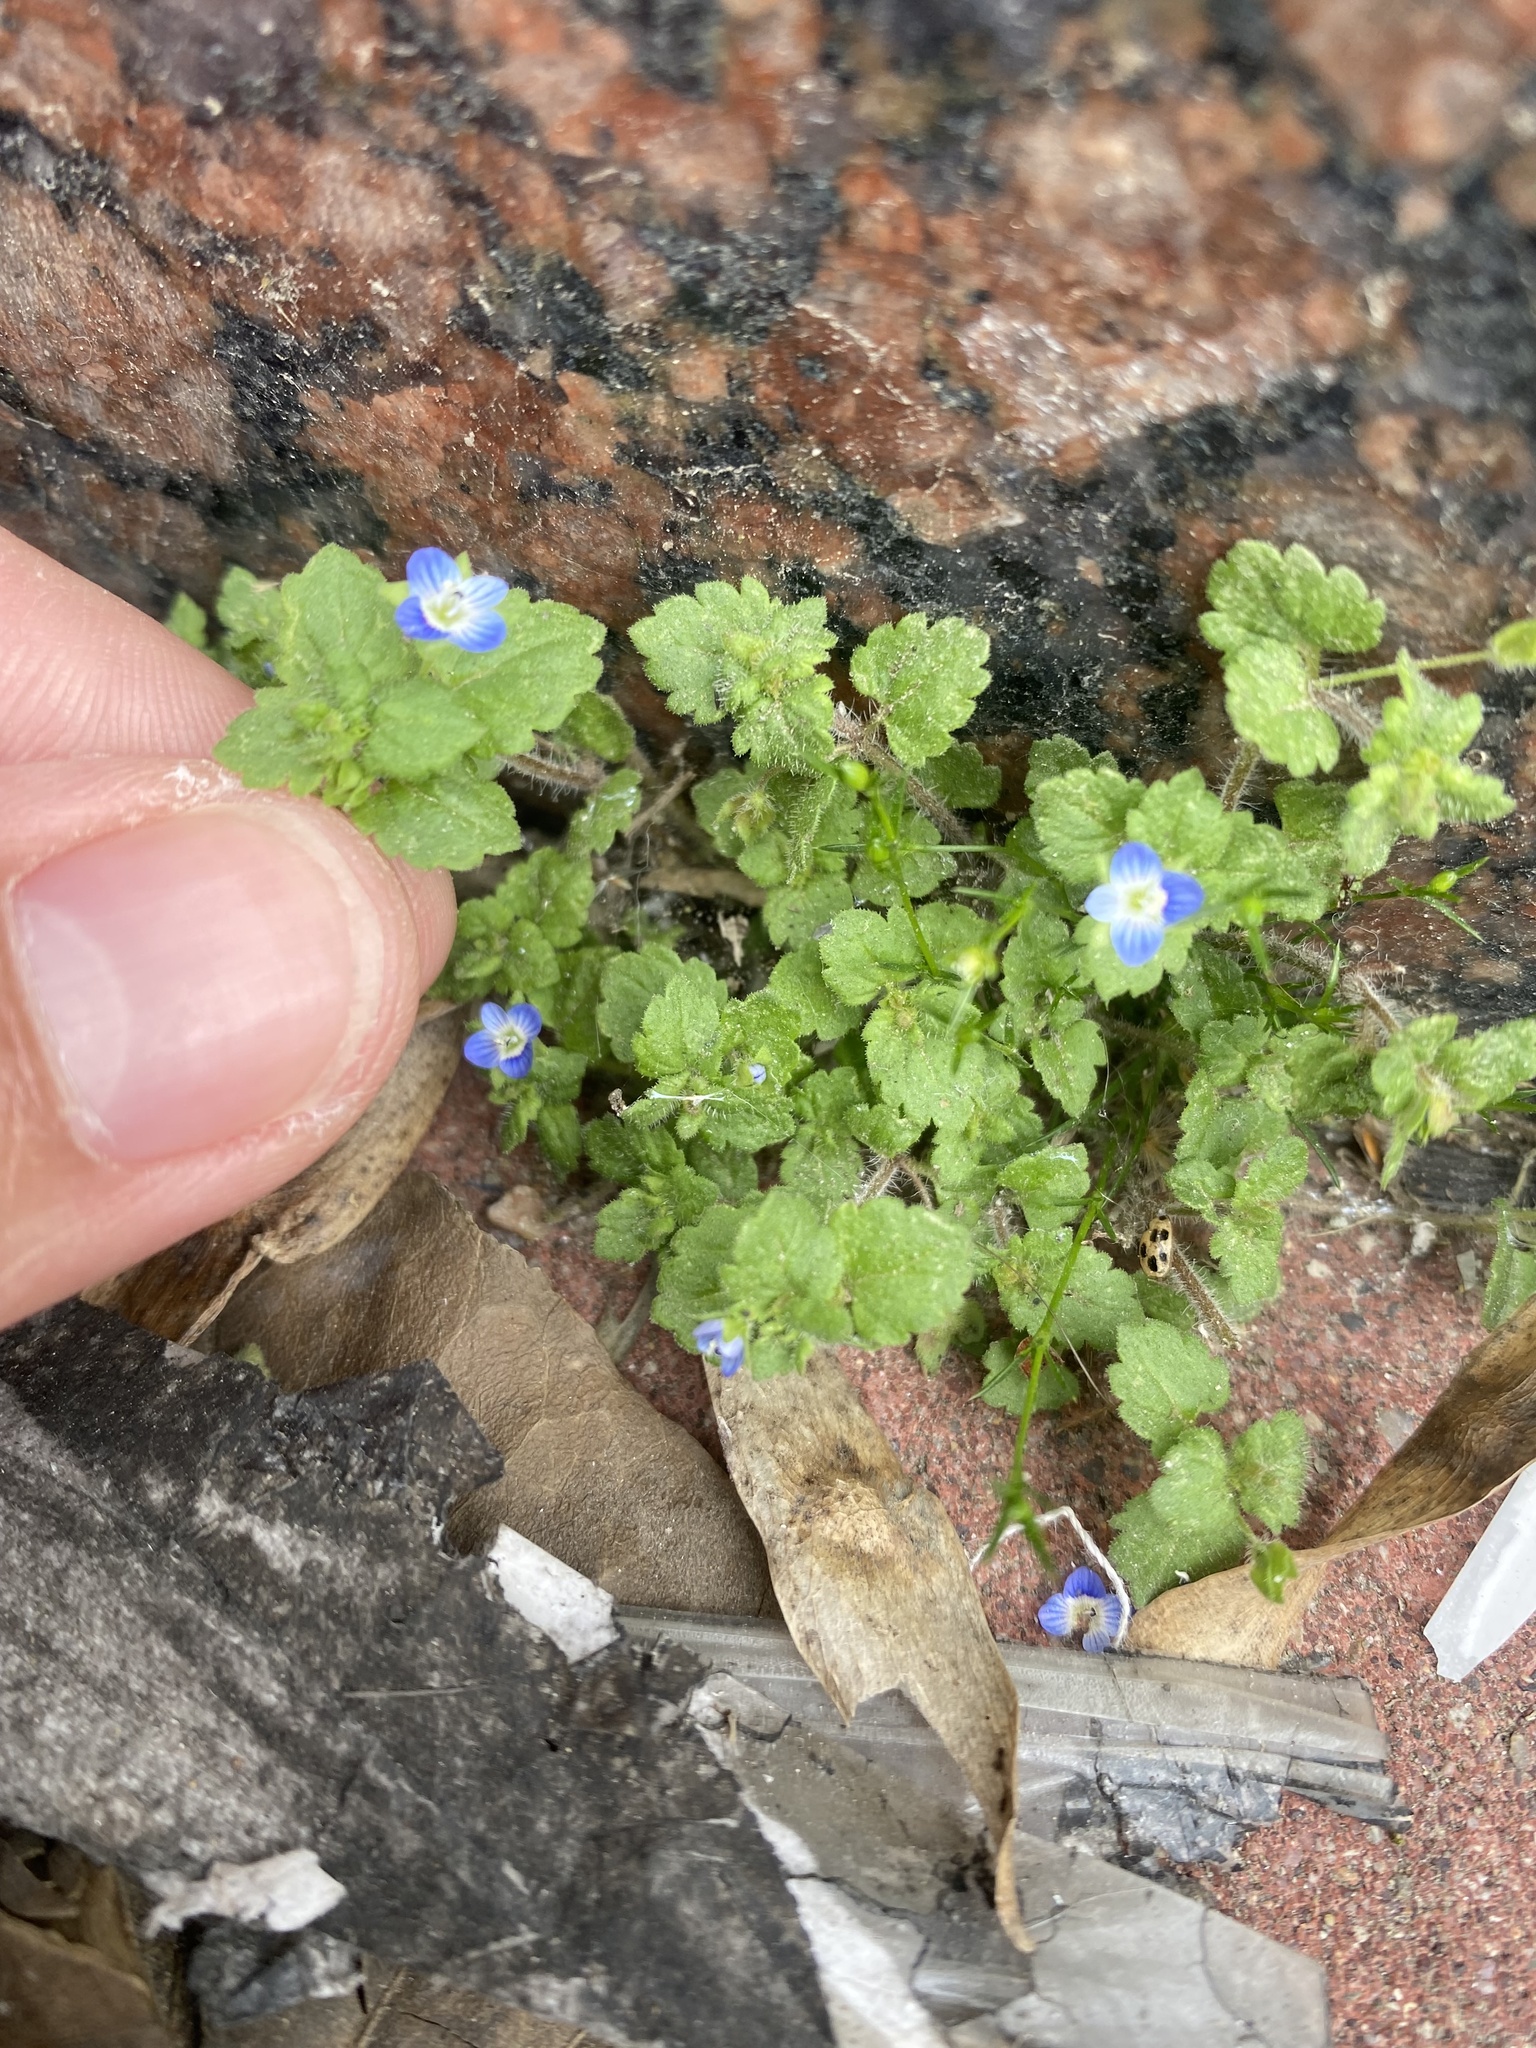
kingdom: Plantae
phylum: Tracheophyta
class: Magnoliopsida
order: Lamiales
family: Plantaginaceae
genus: Veronica
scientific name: Veronica polita
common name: Grey field-speedwell
